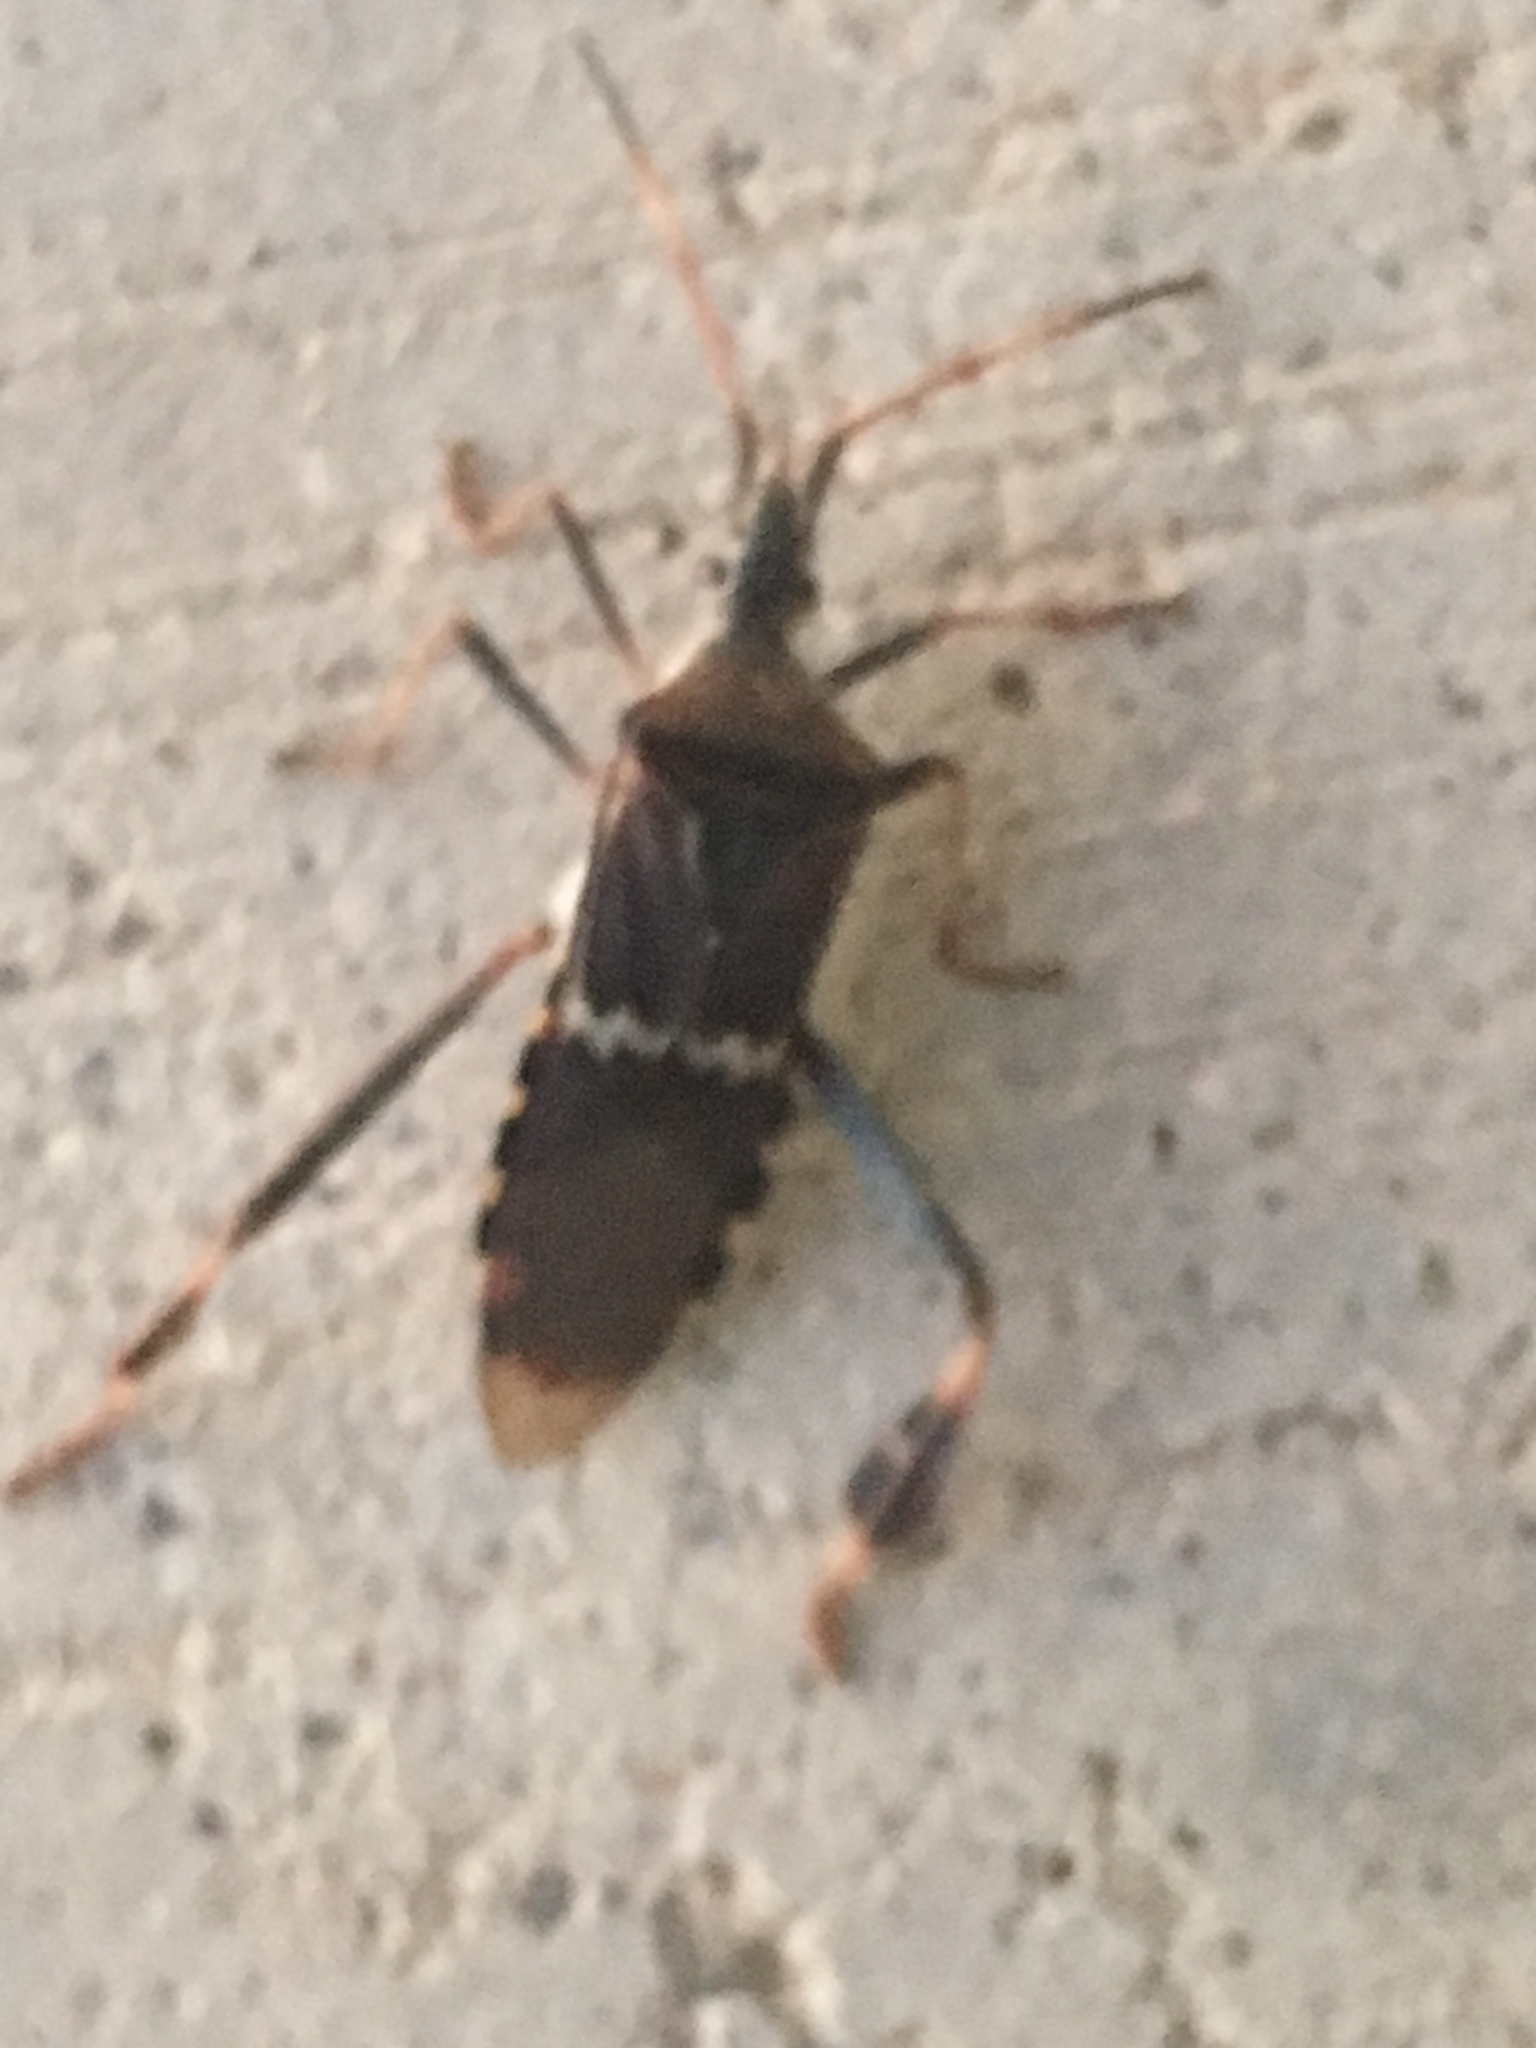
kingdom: Animalia
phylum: Arthropoda
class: Insecta
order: Hemiptera
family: Coreidae
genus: Leptoglossus
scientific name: Leptoglossus clypealis
